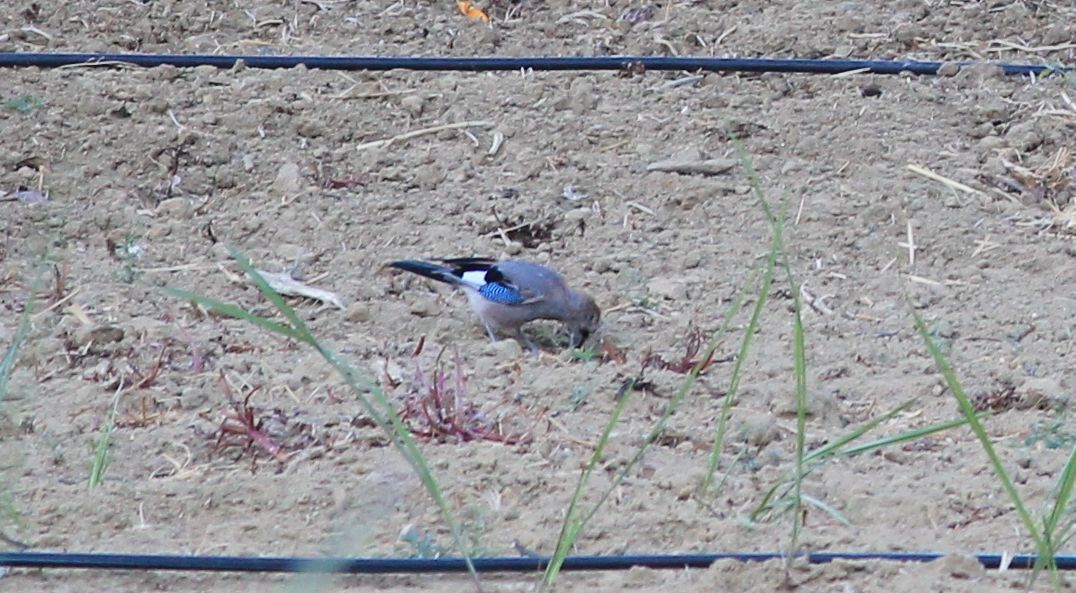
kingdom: Animalia
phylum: Chordata
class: Aves
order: Passeriformes
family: Corvidae
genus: Garrulus
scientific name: Garrulus glandarius
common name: Eurasian jay
